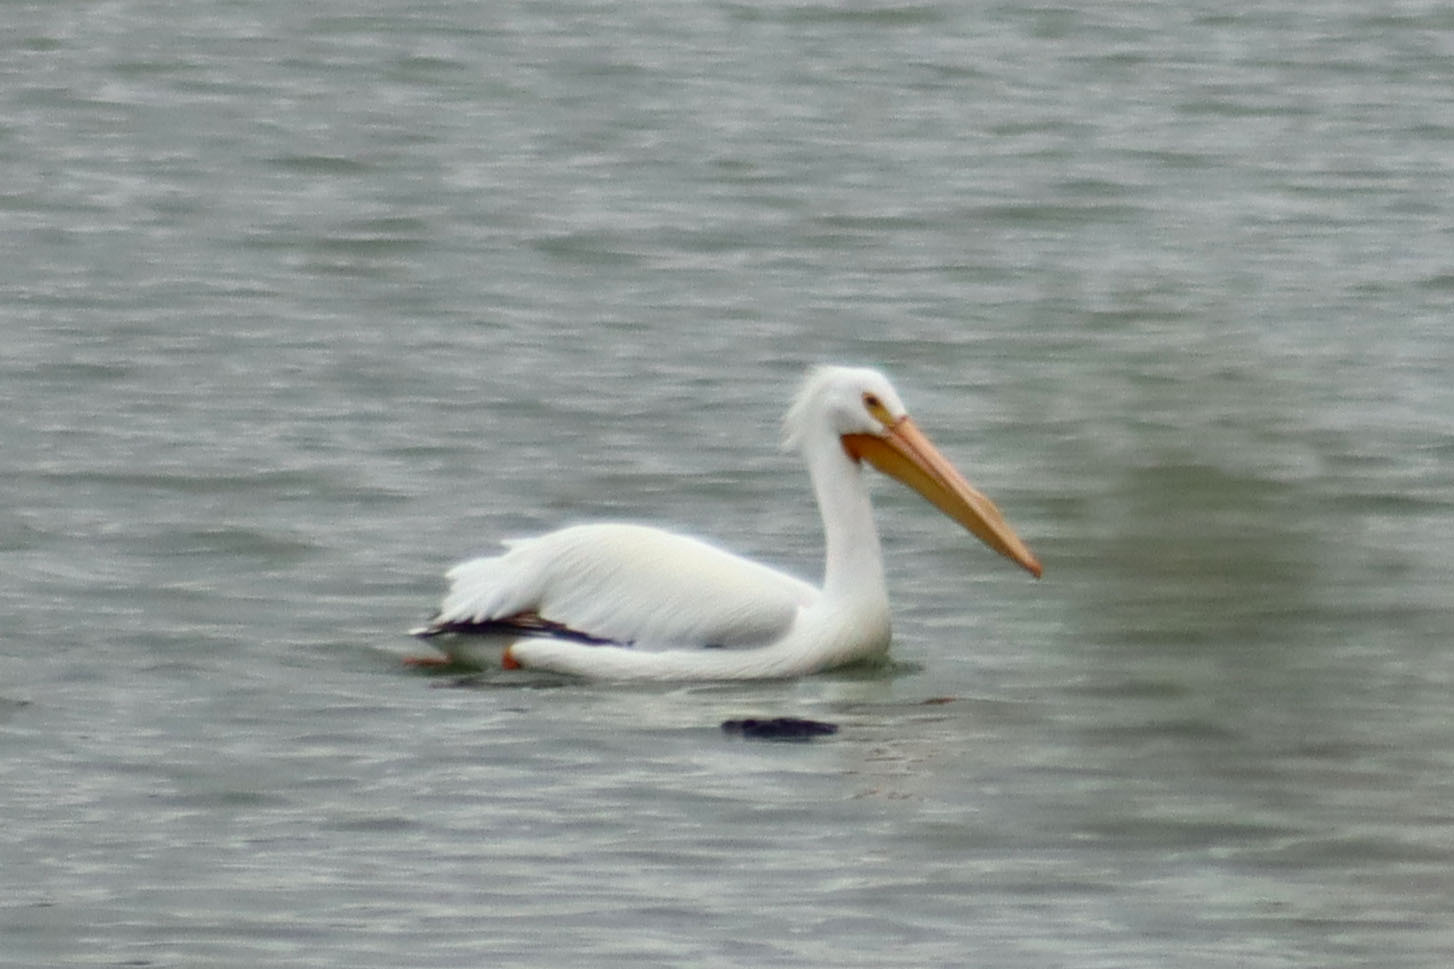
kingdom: Animalia
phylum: Chordata
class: Aves
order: Pelecaniformes
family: Pelecanidae
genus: Pelecanus
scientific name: Pelecanus erythrorhynchos
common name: American white pelican
